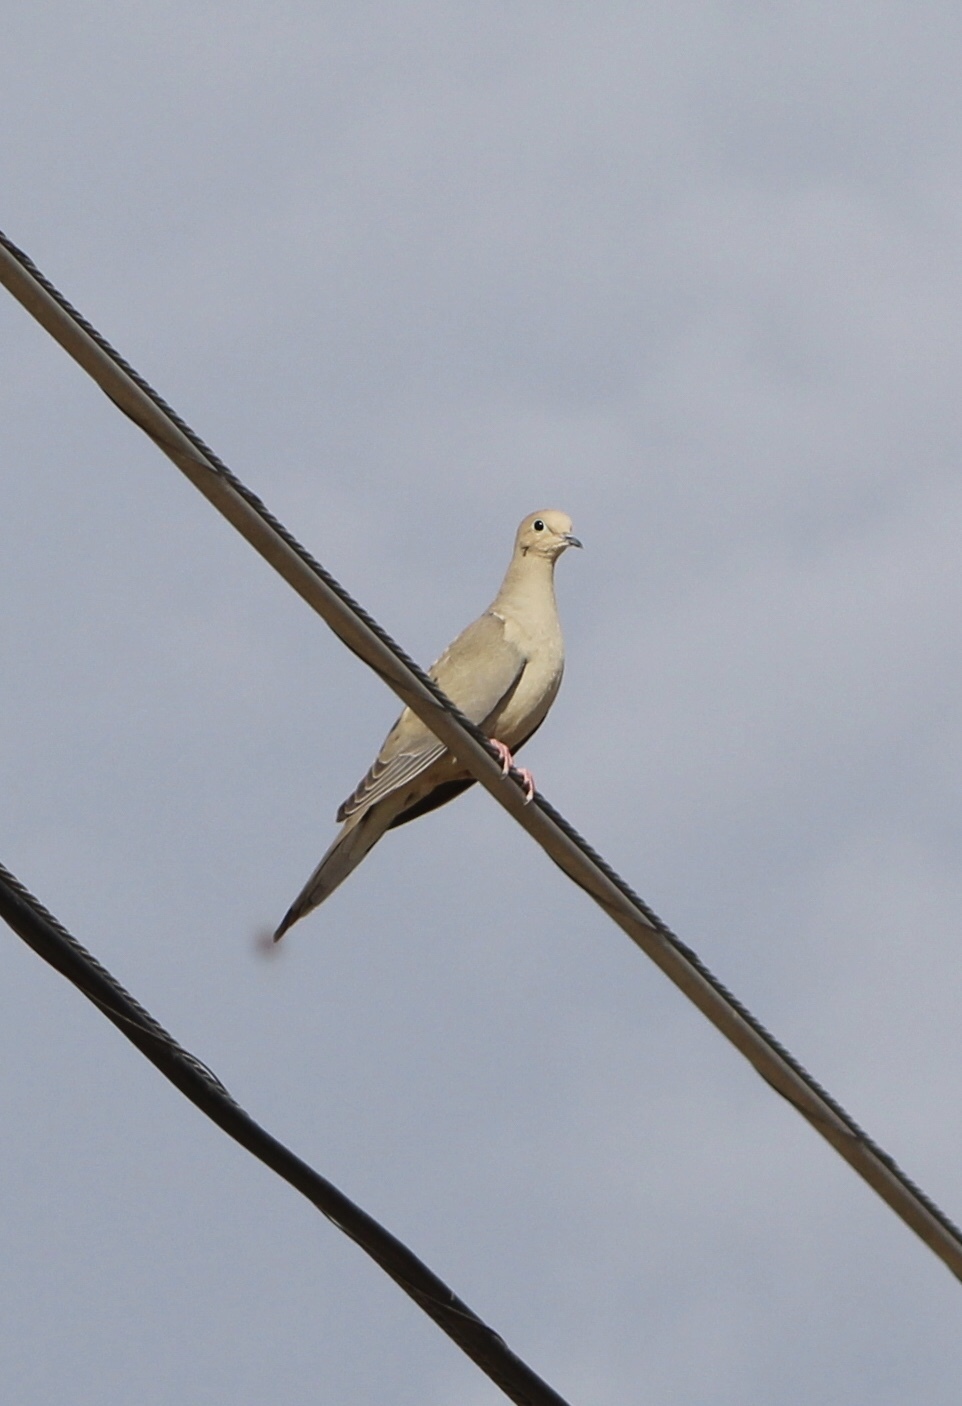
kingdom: Animalia
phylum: Chordata
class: Aves
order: Columbiformes
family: Columbidae
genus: Zenaida
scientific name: Zenaida macroura
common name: Mourning dove
